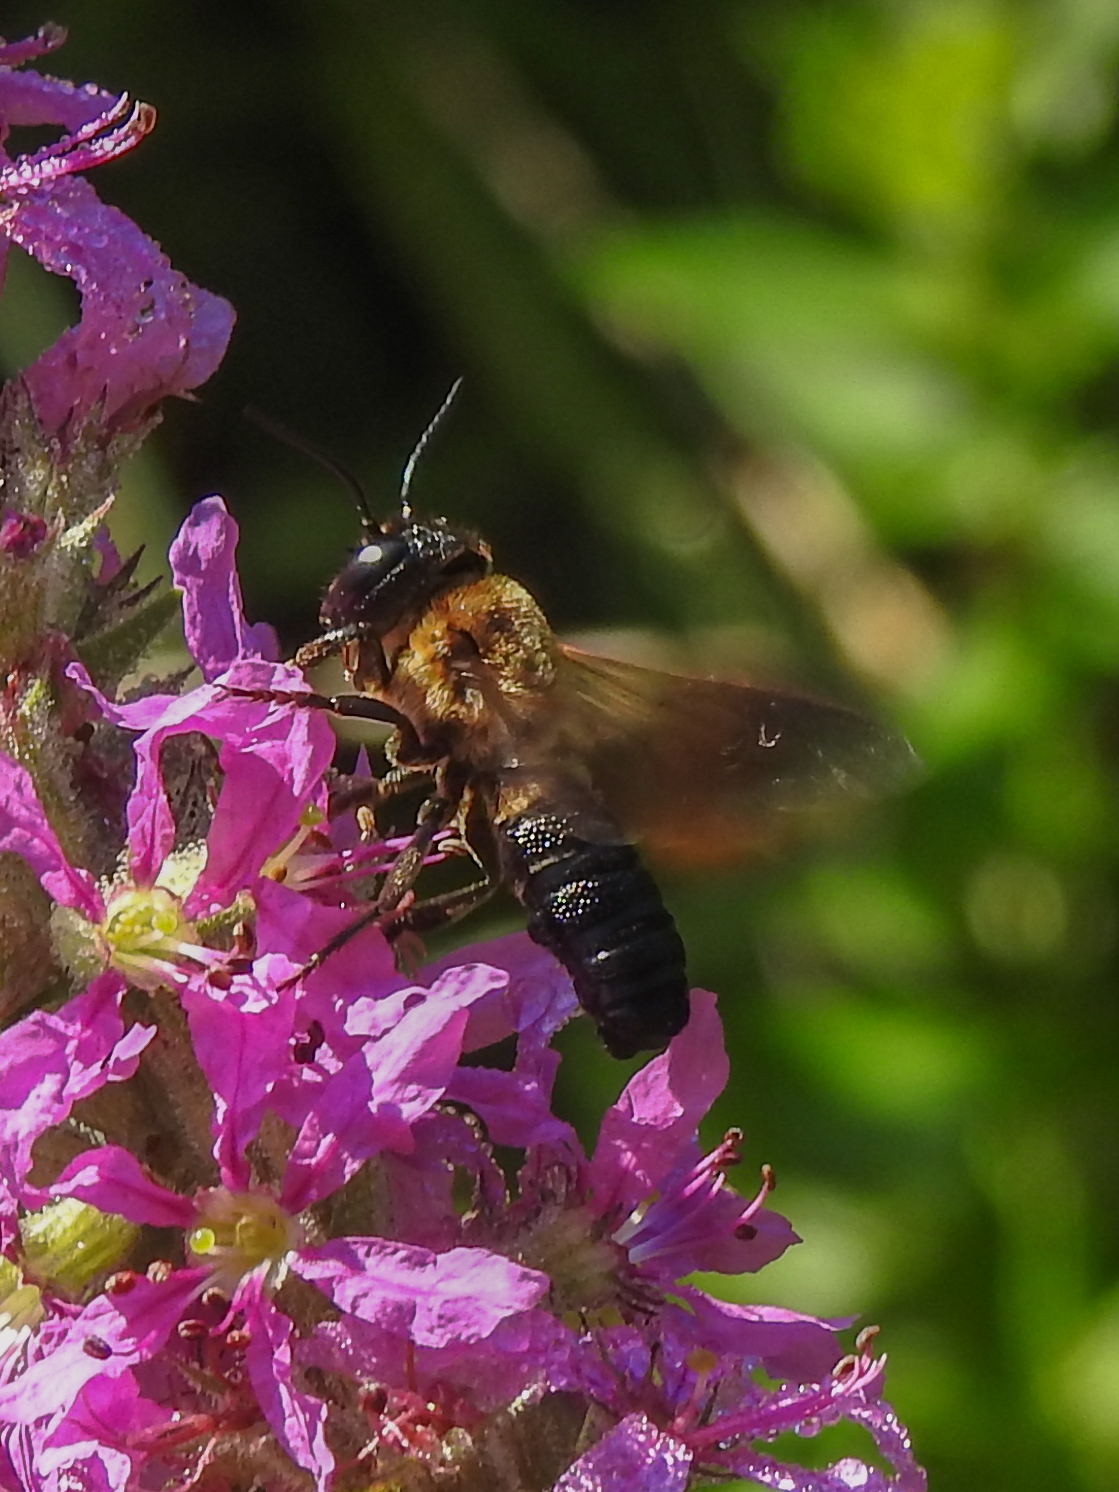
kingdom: Animalia
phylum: Arthropoda
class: Insecta
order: Hymenoptera
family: Megachilidae
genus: Megachile
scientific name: Megachile sculpturalis
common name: Sculptured resin bee
